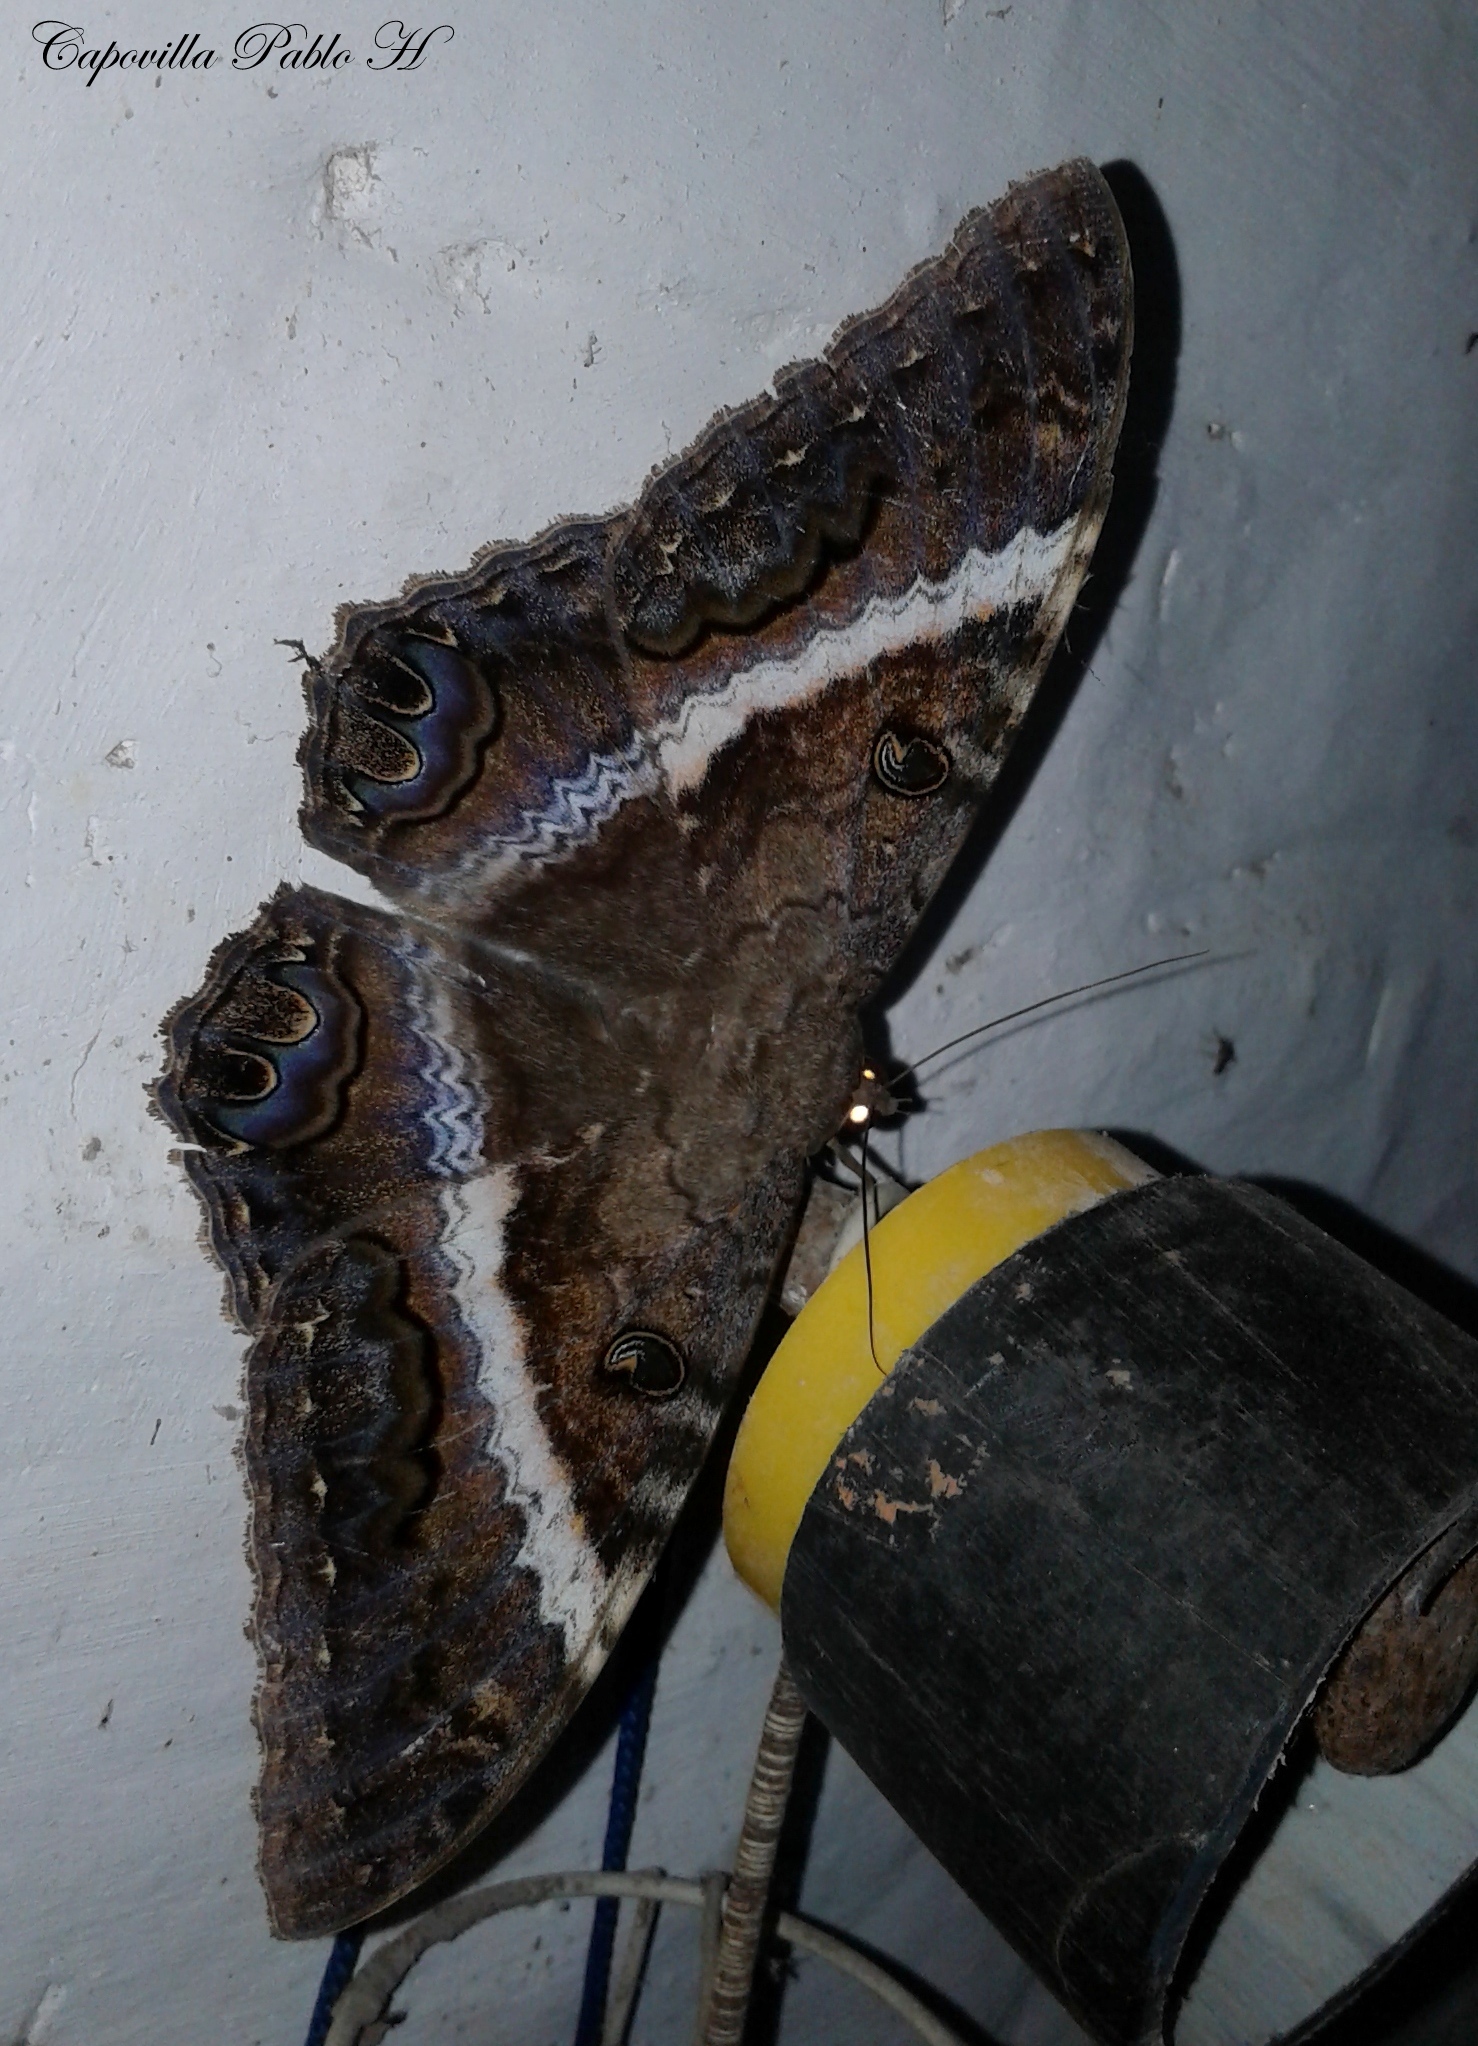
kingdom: Animalia
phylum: Arthropoda
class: Insecta
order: Lepidoptera
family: Erebidae
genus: Ascalapha
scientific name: Ascalapha odorata
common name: Black witch
